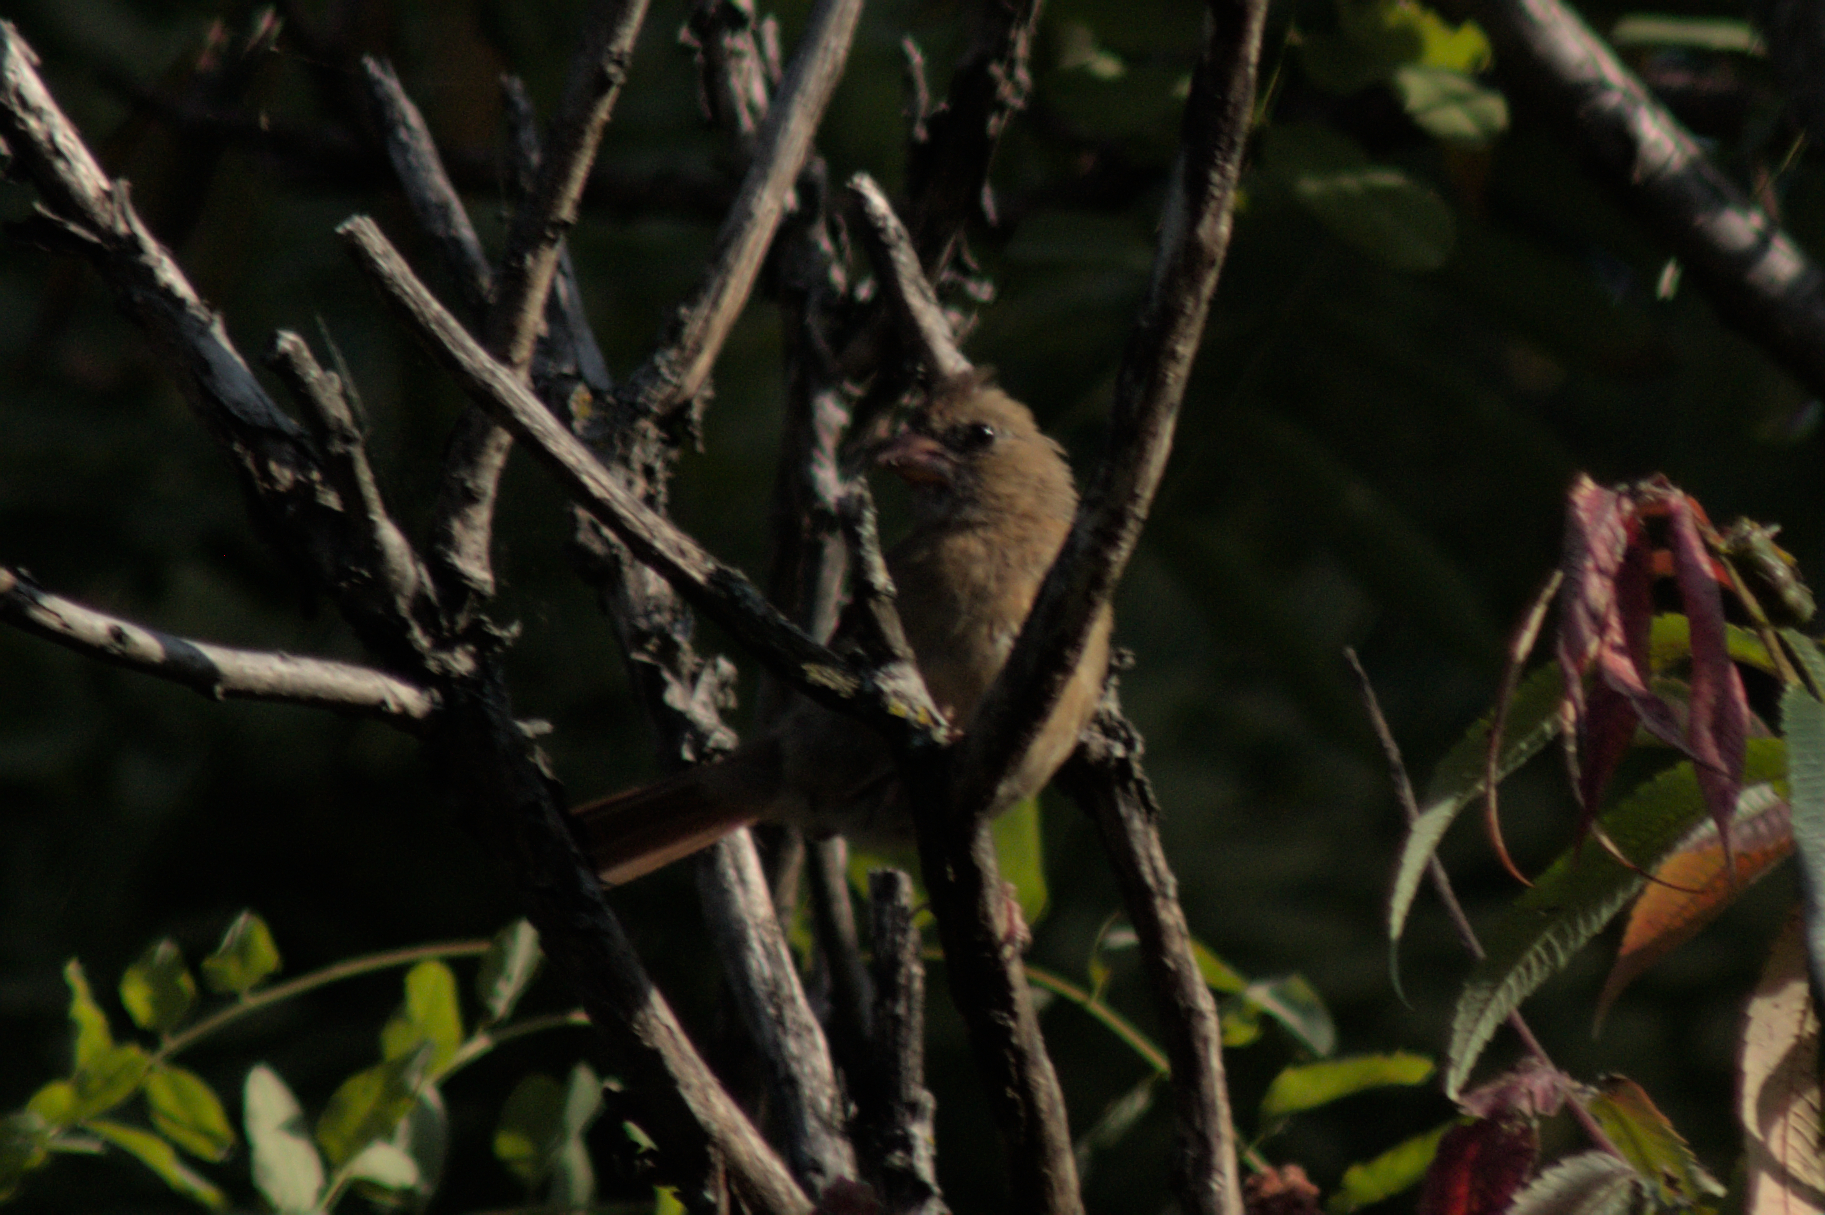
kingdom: Animalia
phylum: Chordata
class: Aves
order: Passeriformes
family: Cardinalidae
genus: Cardinalis
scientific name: Cardinalis cardinalis
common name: Northern cardinal
